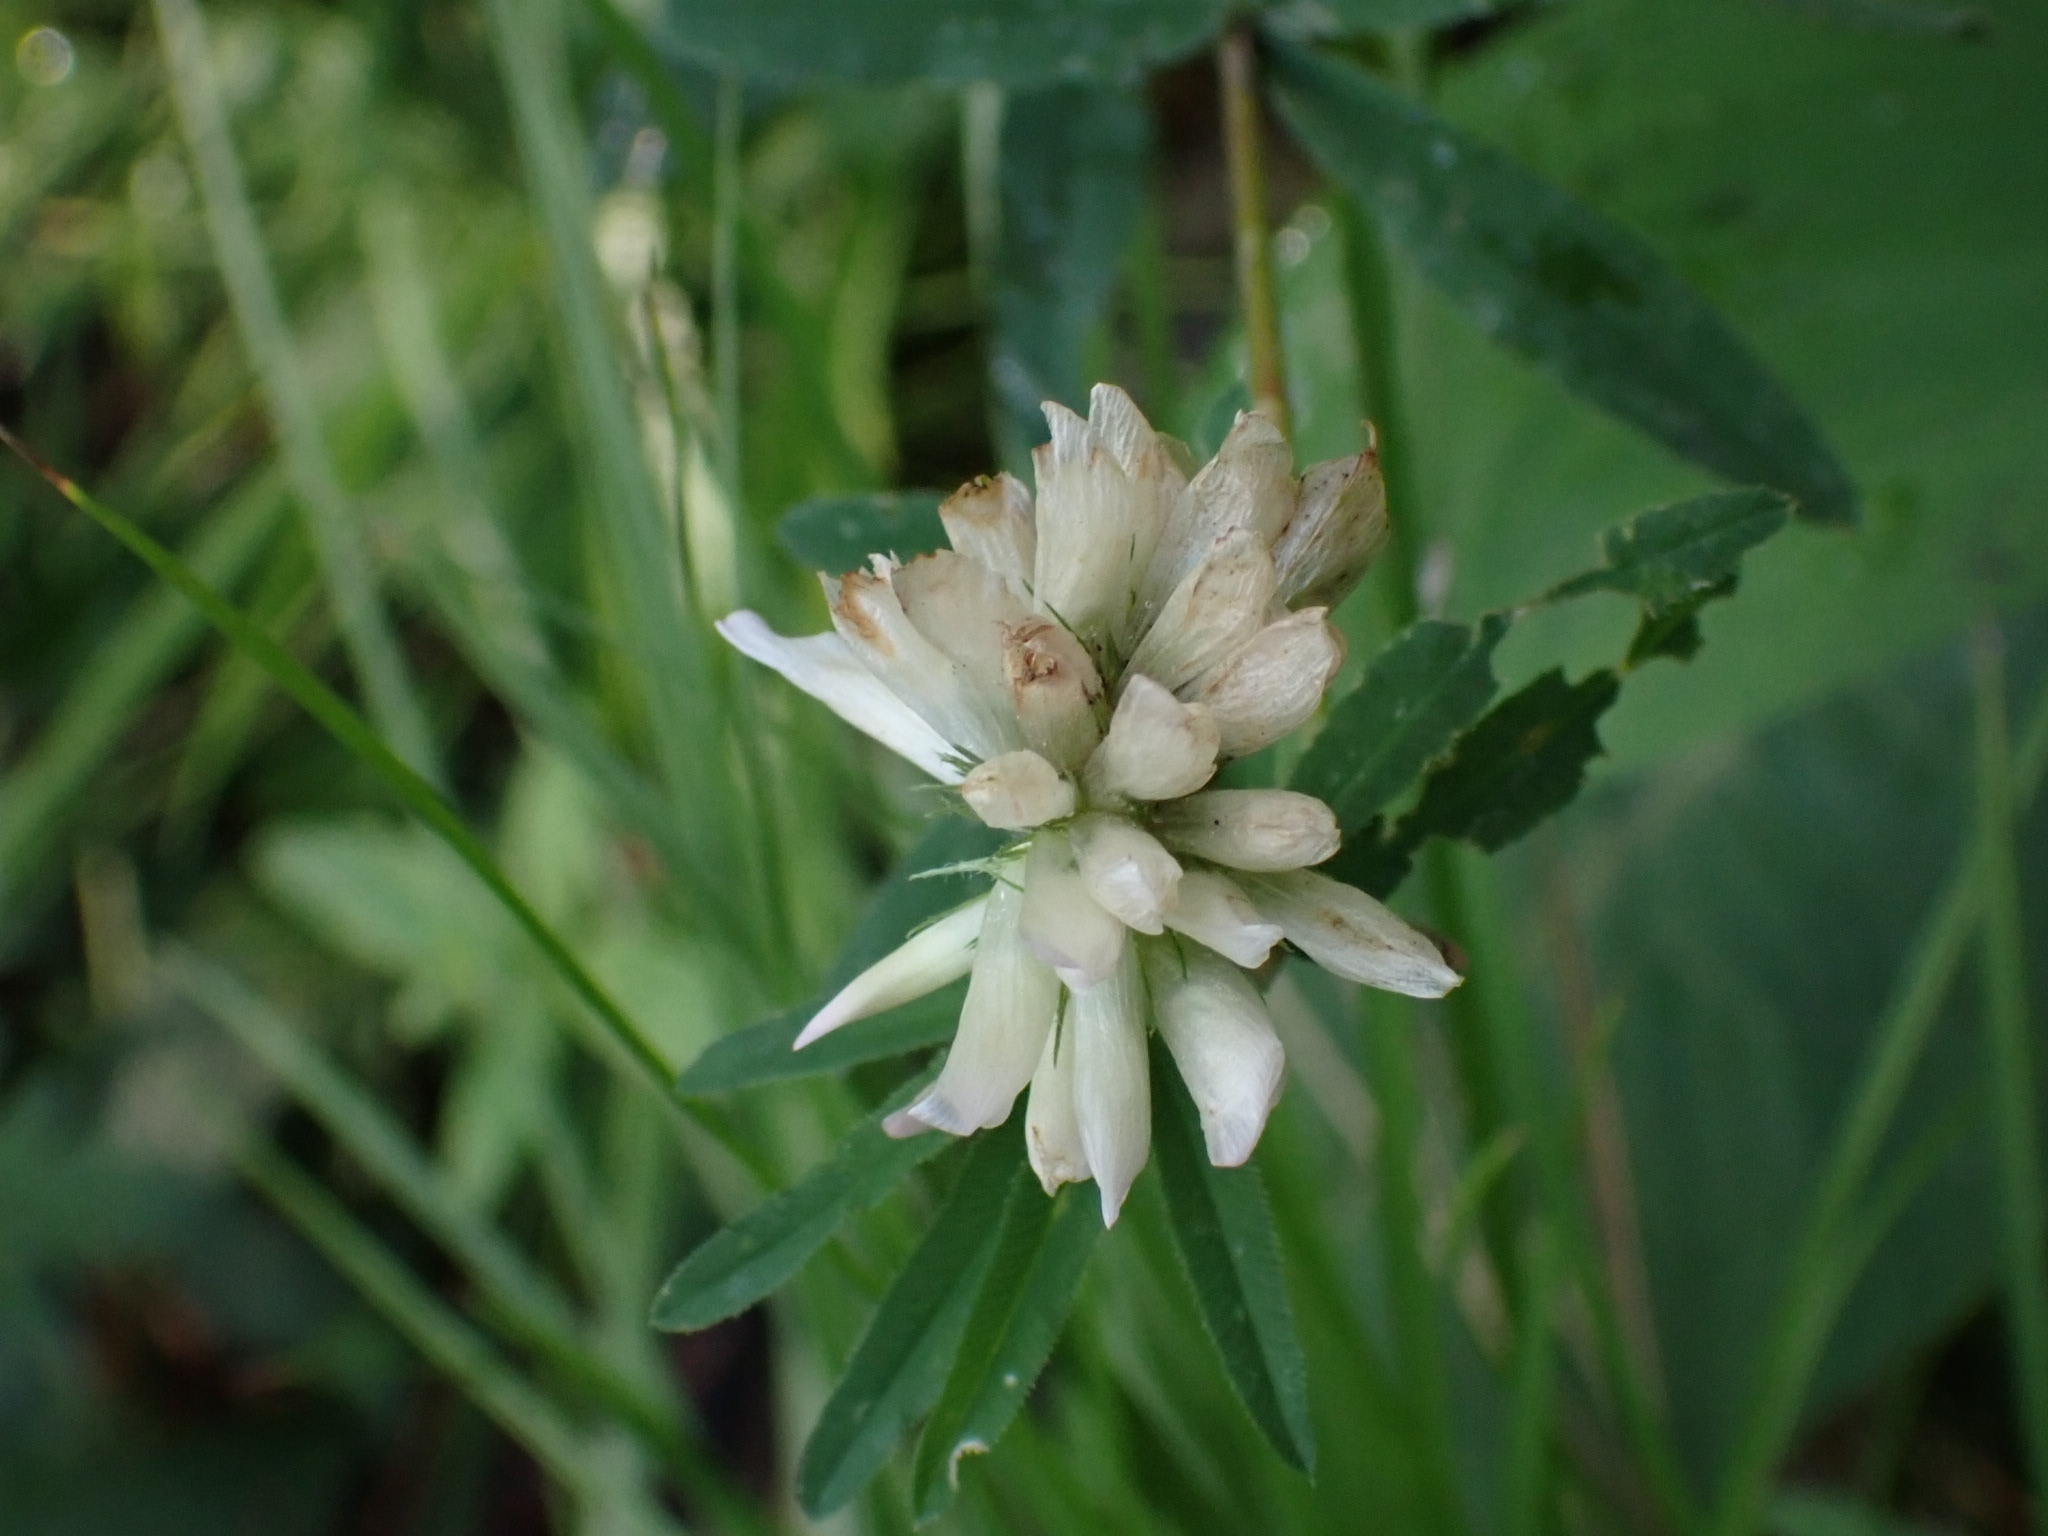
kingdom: Plantae
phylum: Tracheophyta
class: Magnoliopsida
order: Fabales
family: Fabaceae
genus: Trifolium
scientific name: Trifolium lupinaster
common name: Lupine clover
